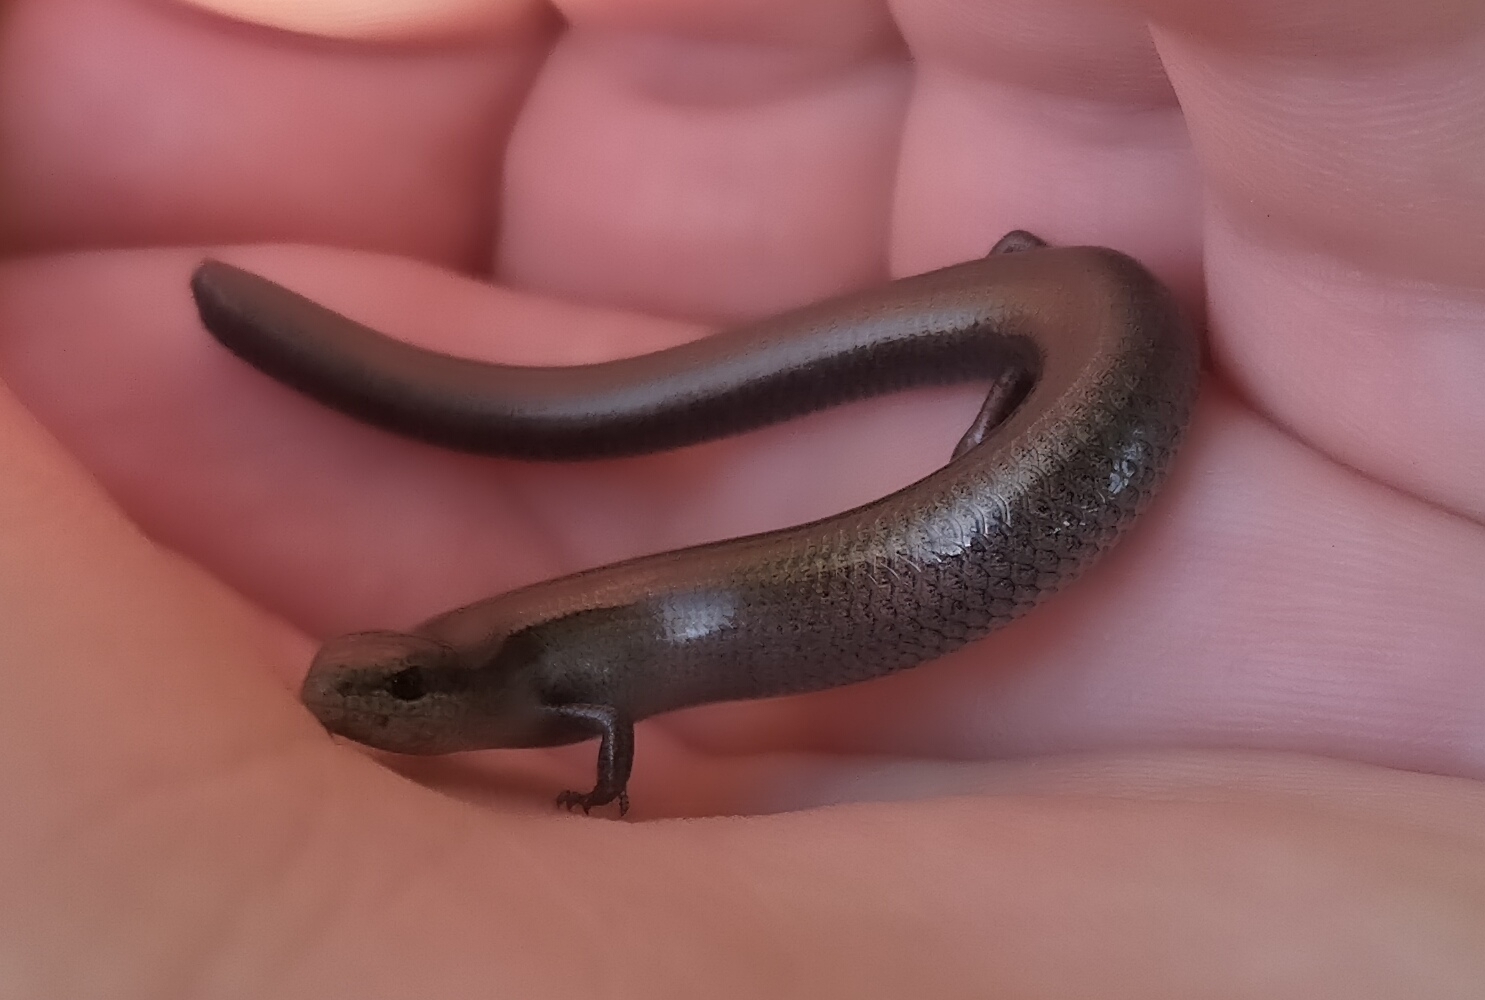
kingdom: Animalia
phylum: Chordata
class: Squamata
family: Scincidae
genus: Ablepharus
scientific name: Ablepharus kitaibelii
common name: Juniper skink
